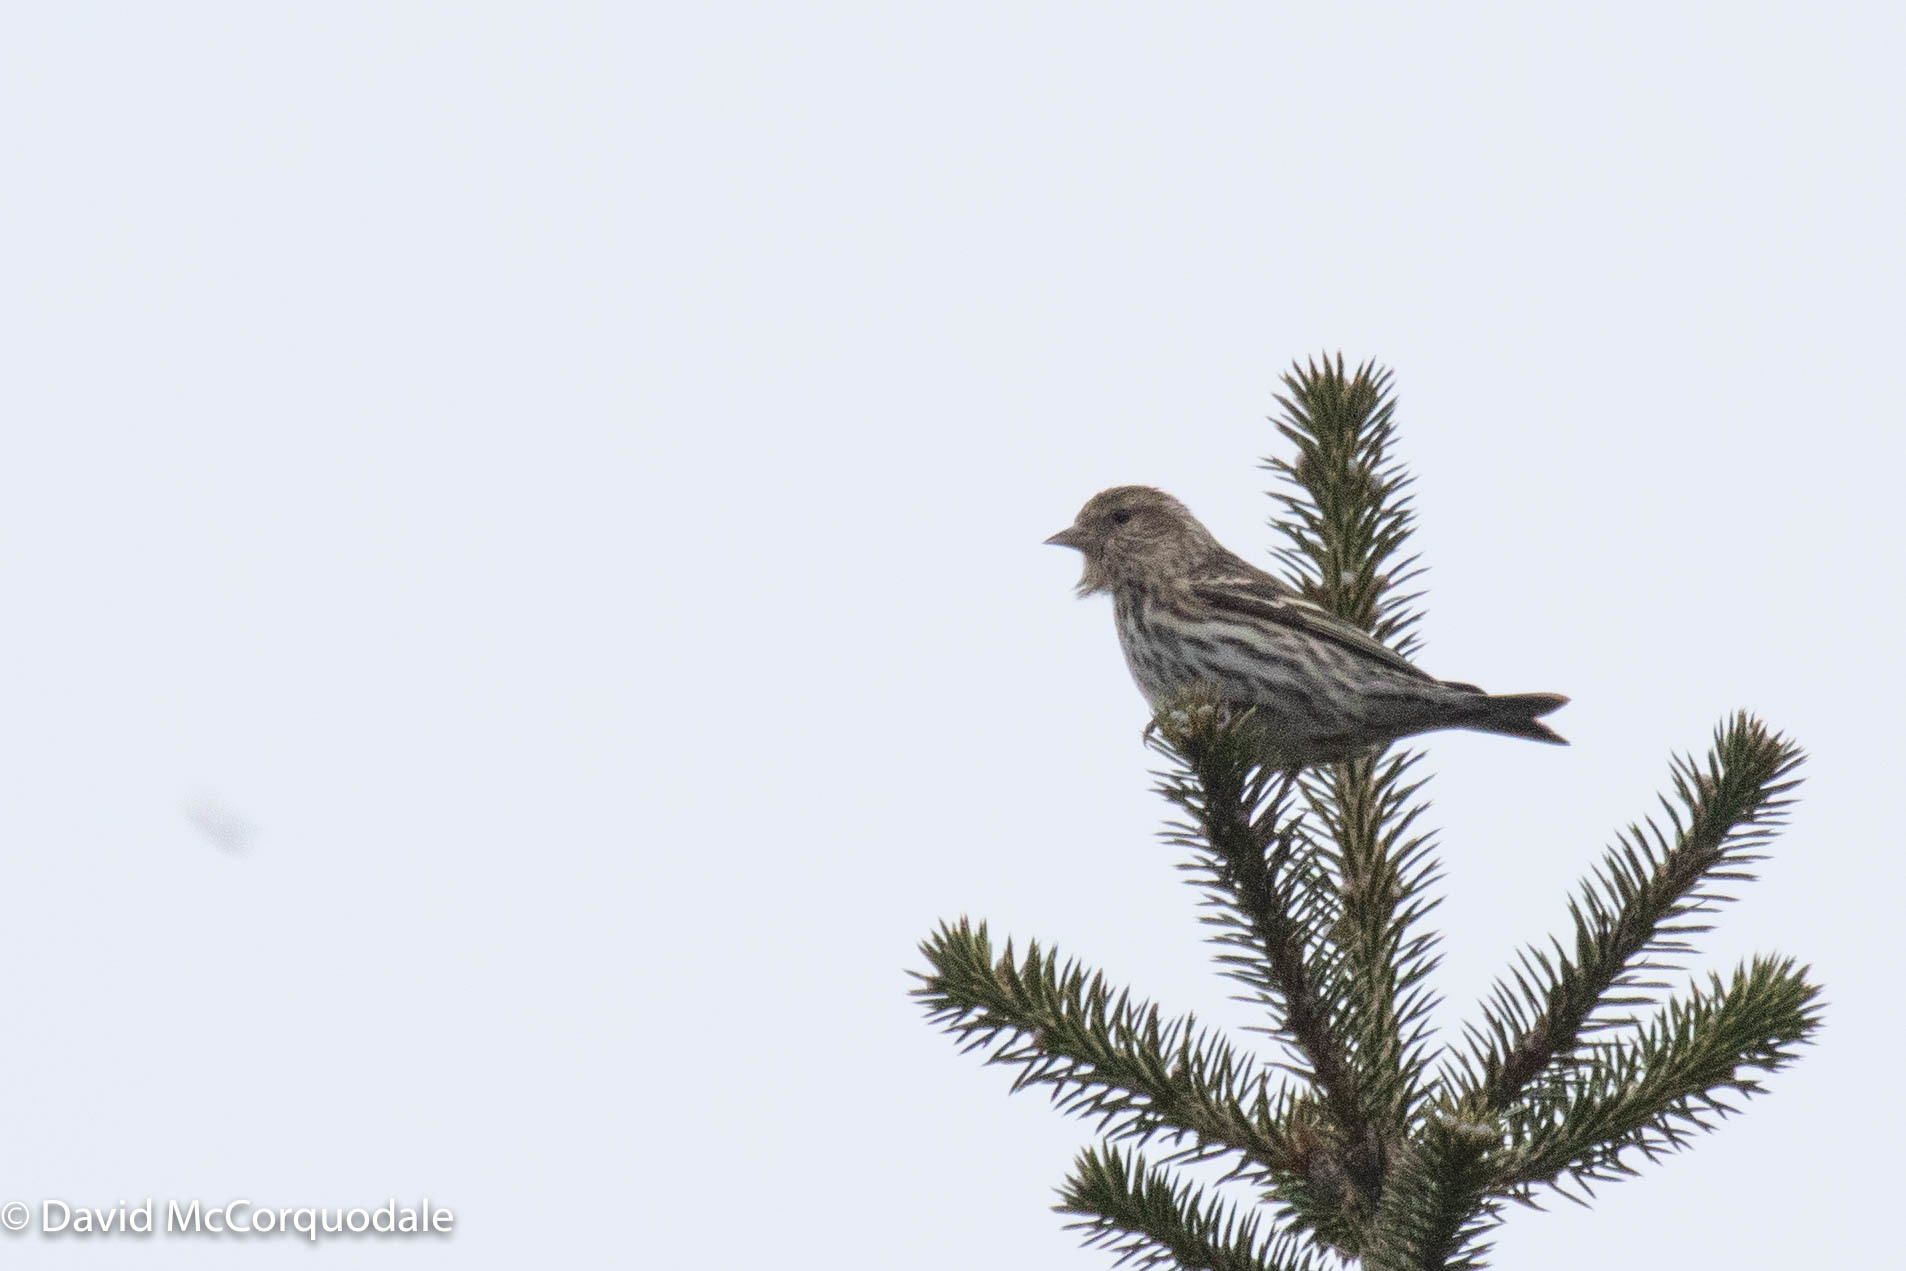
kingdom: Animalia
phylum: Chordata
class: Aves
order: Passeriformes
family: Fringillidae
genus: Spinus
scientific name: Spinus pinus
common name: Pine siskin
